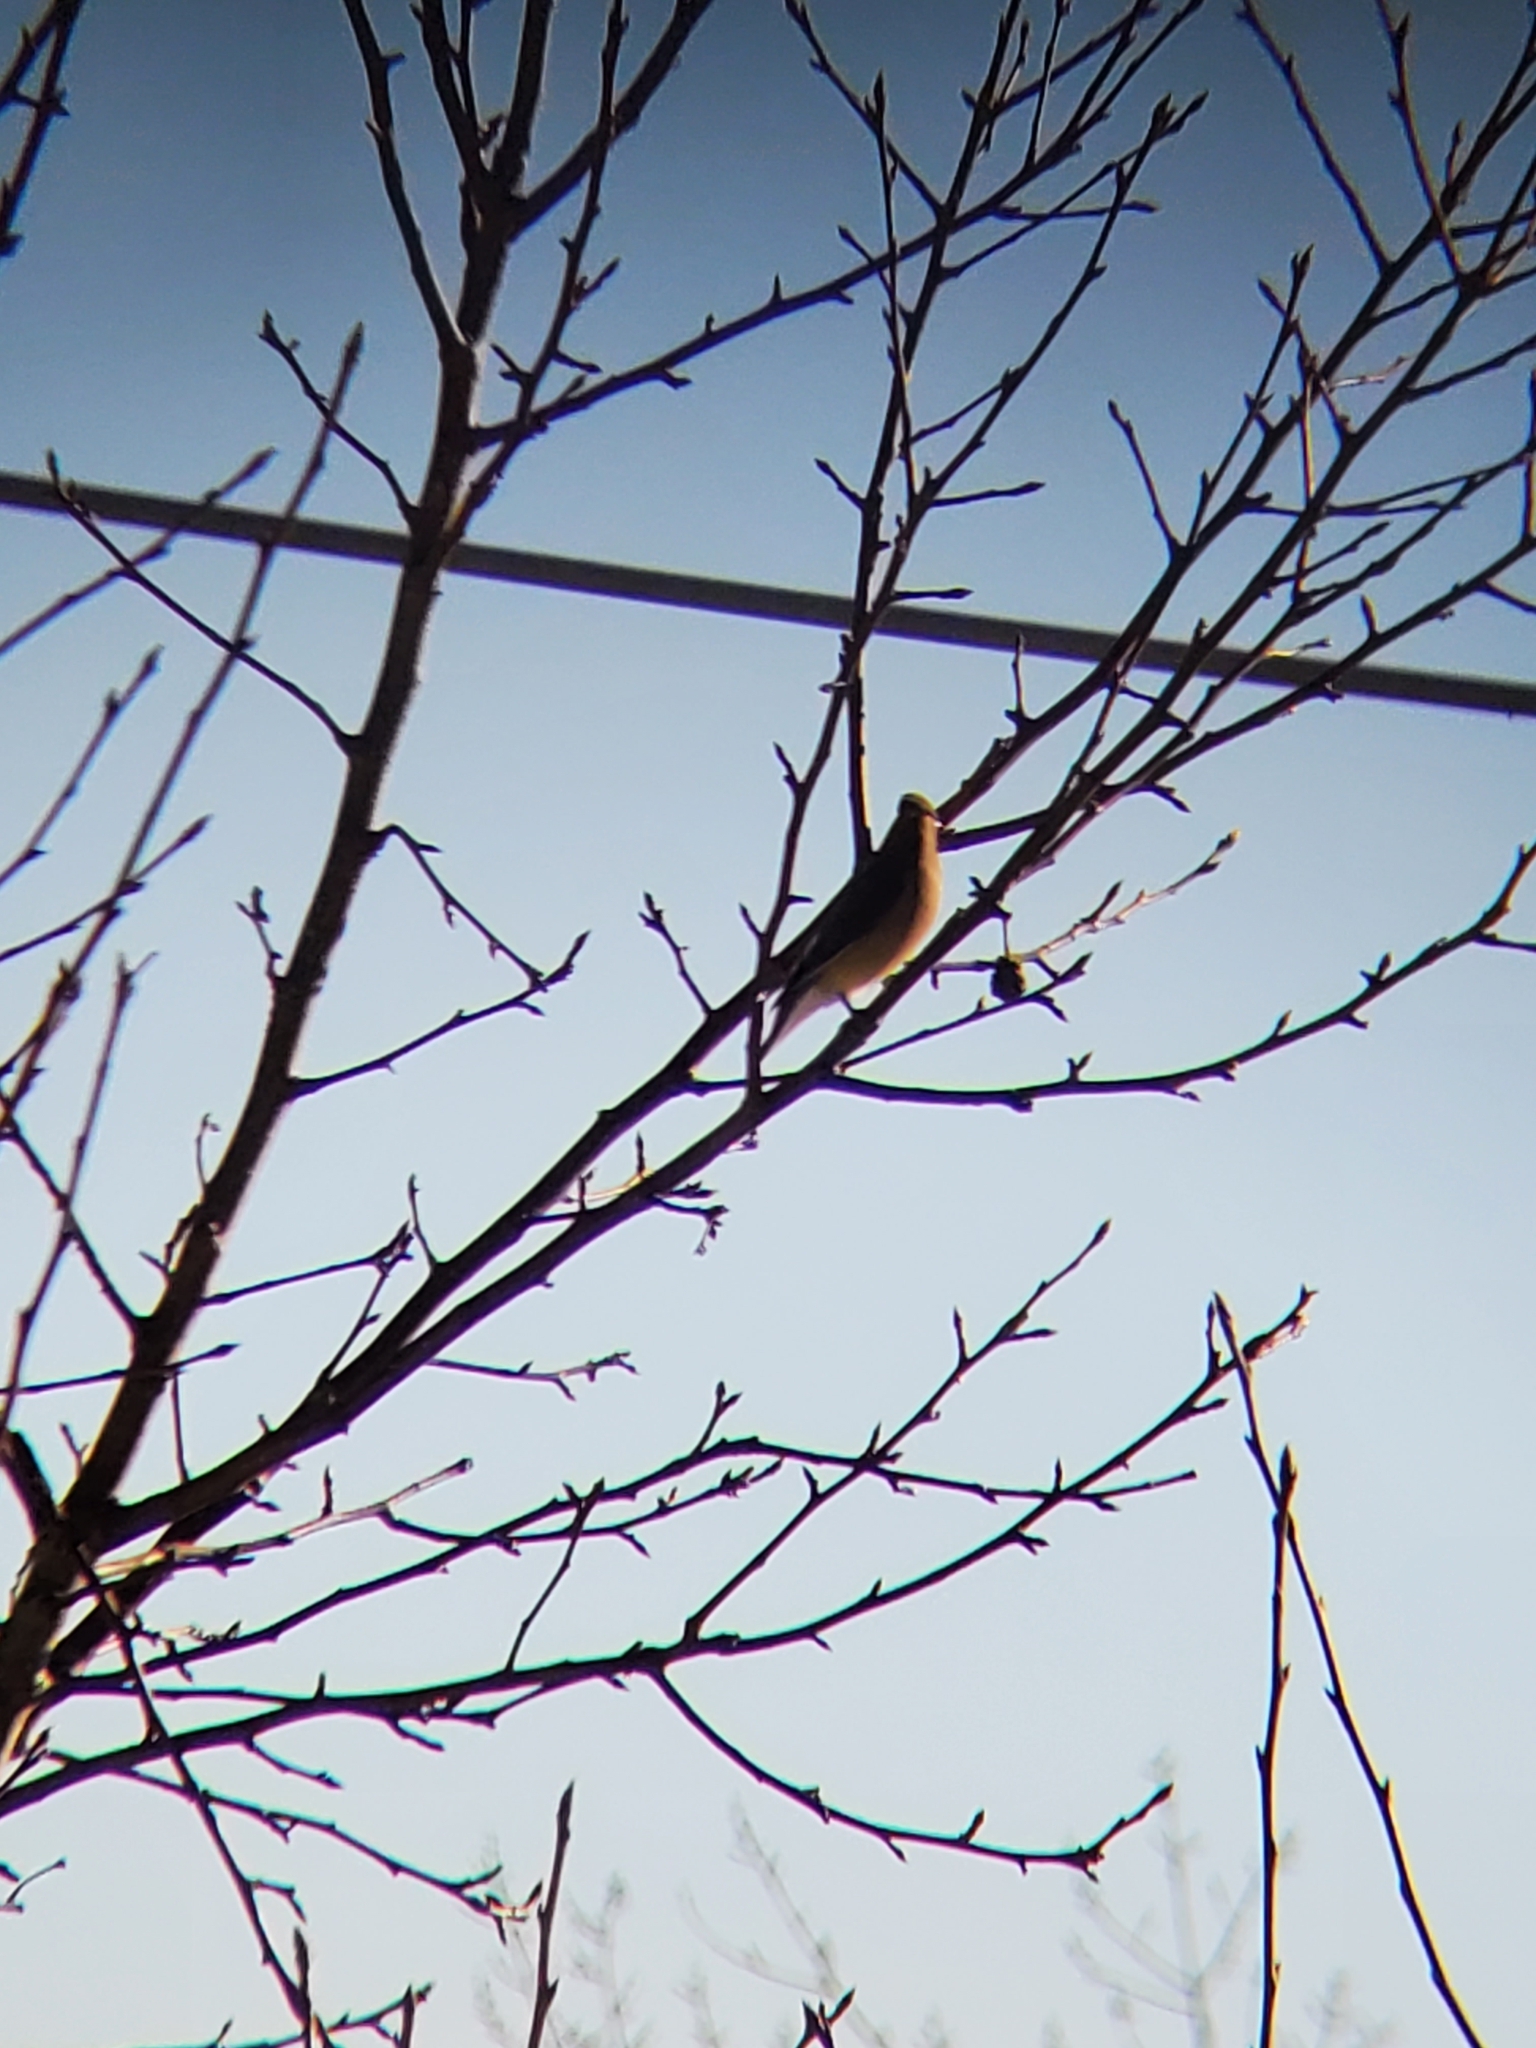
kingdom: Animalia
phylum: Chordata
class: Aves
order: Passeriformes
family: Bombycillidae
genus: Bombycilla
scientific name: Bombycilla cedrorum
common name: Cedar waxwing
